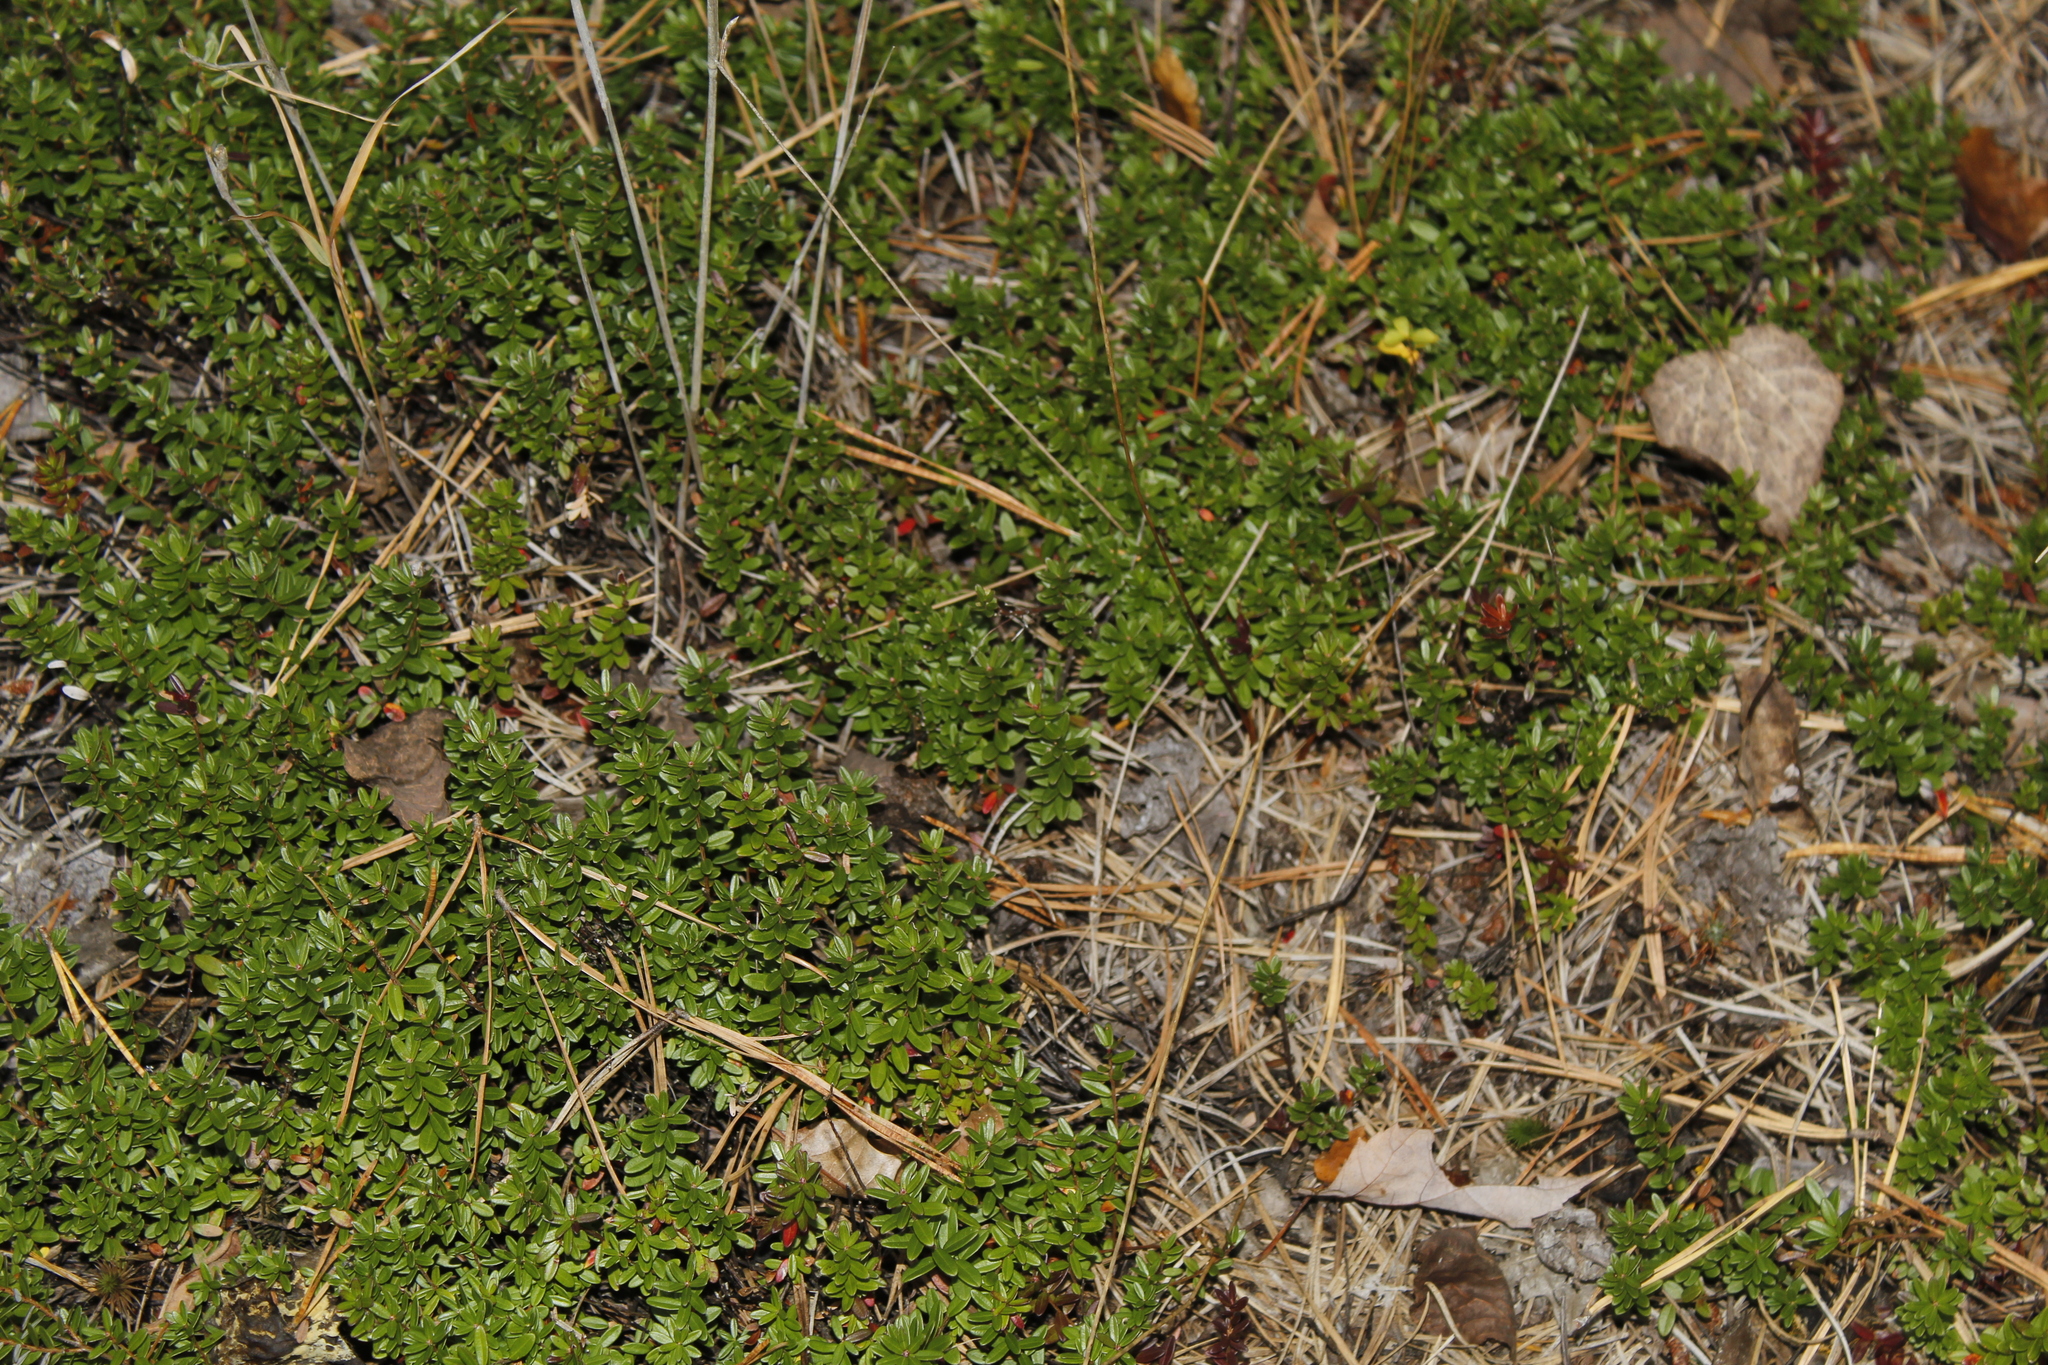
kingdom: Plantae
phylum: Tracheophyta
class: Magnoliopsida
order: Ericales
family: Ericaceae
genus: Vaccinium
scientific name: Vaccinium macrocarpon
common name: American cranberry
